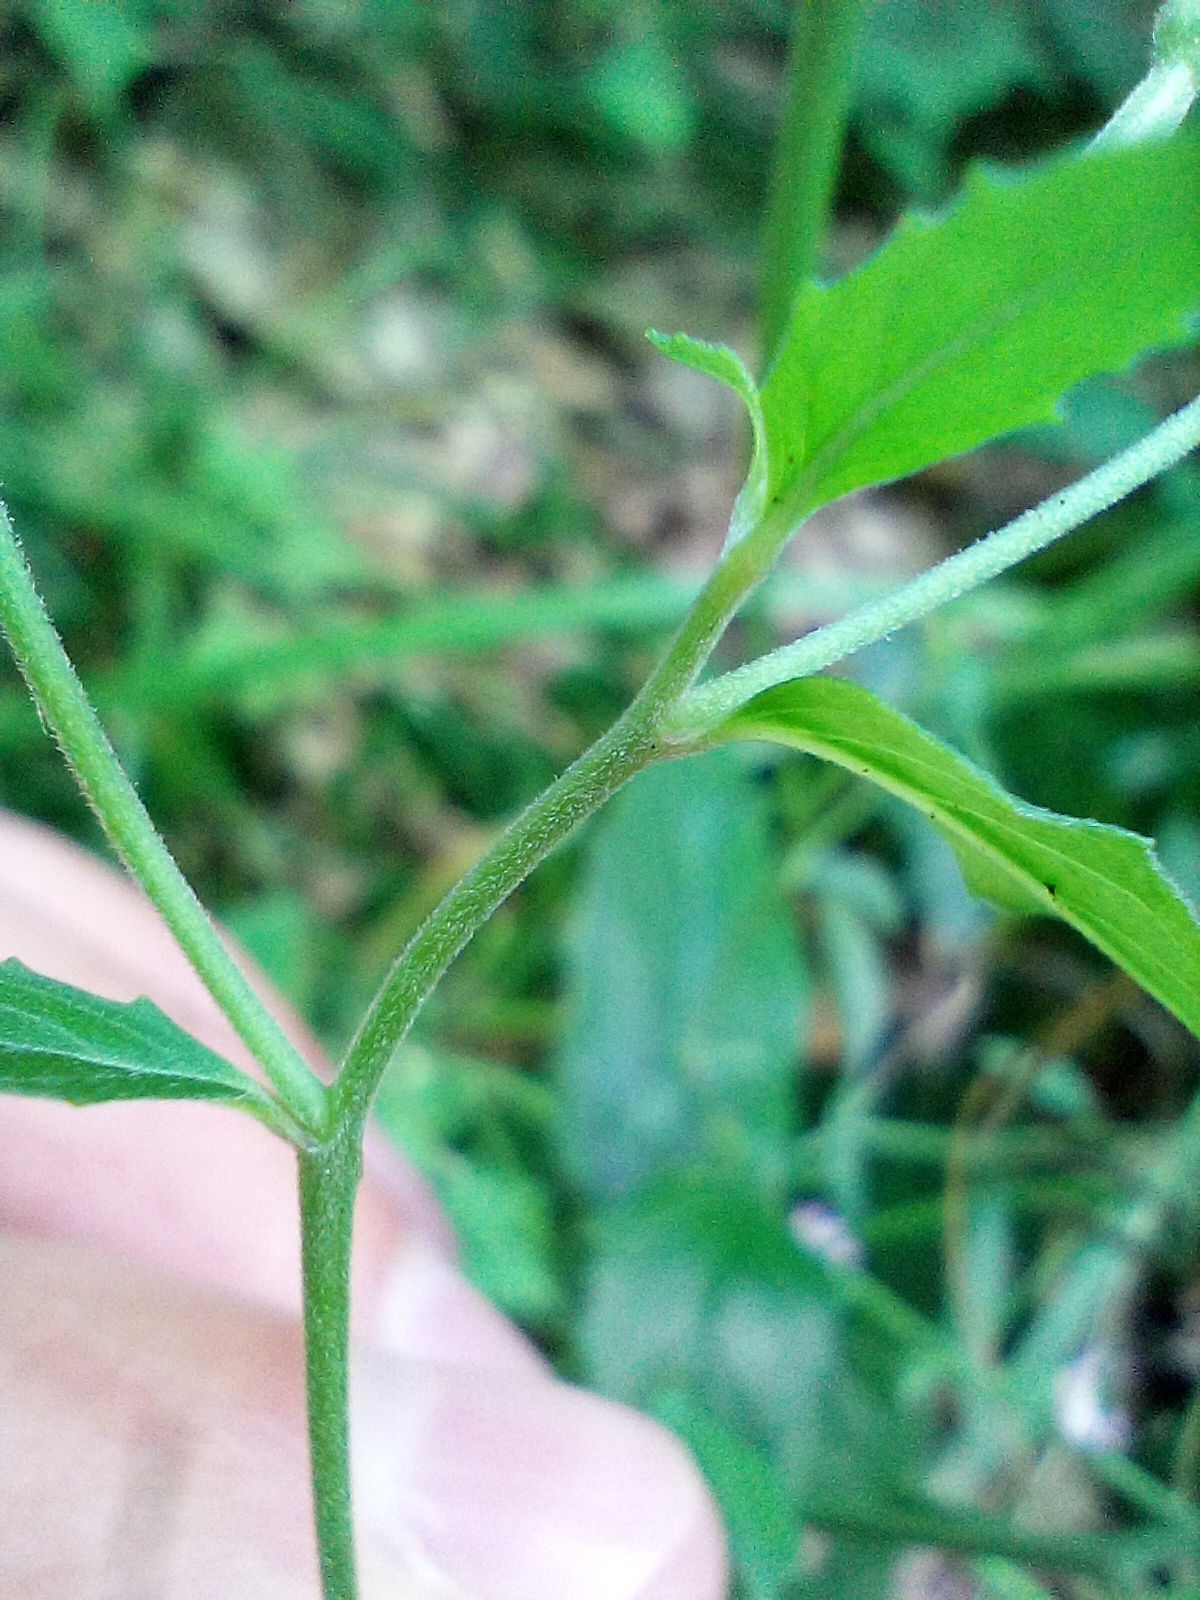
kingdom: Plantae
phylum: Tracheophyta
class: Magnoliopsida
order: Myrtales
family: Onagraceae
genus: Epilobium
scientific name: Epilobium montanum
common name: Broad-leaved willowherb
